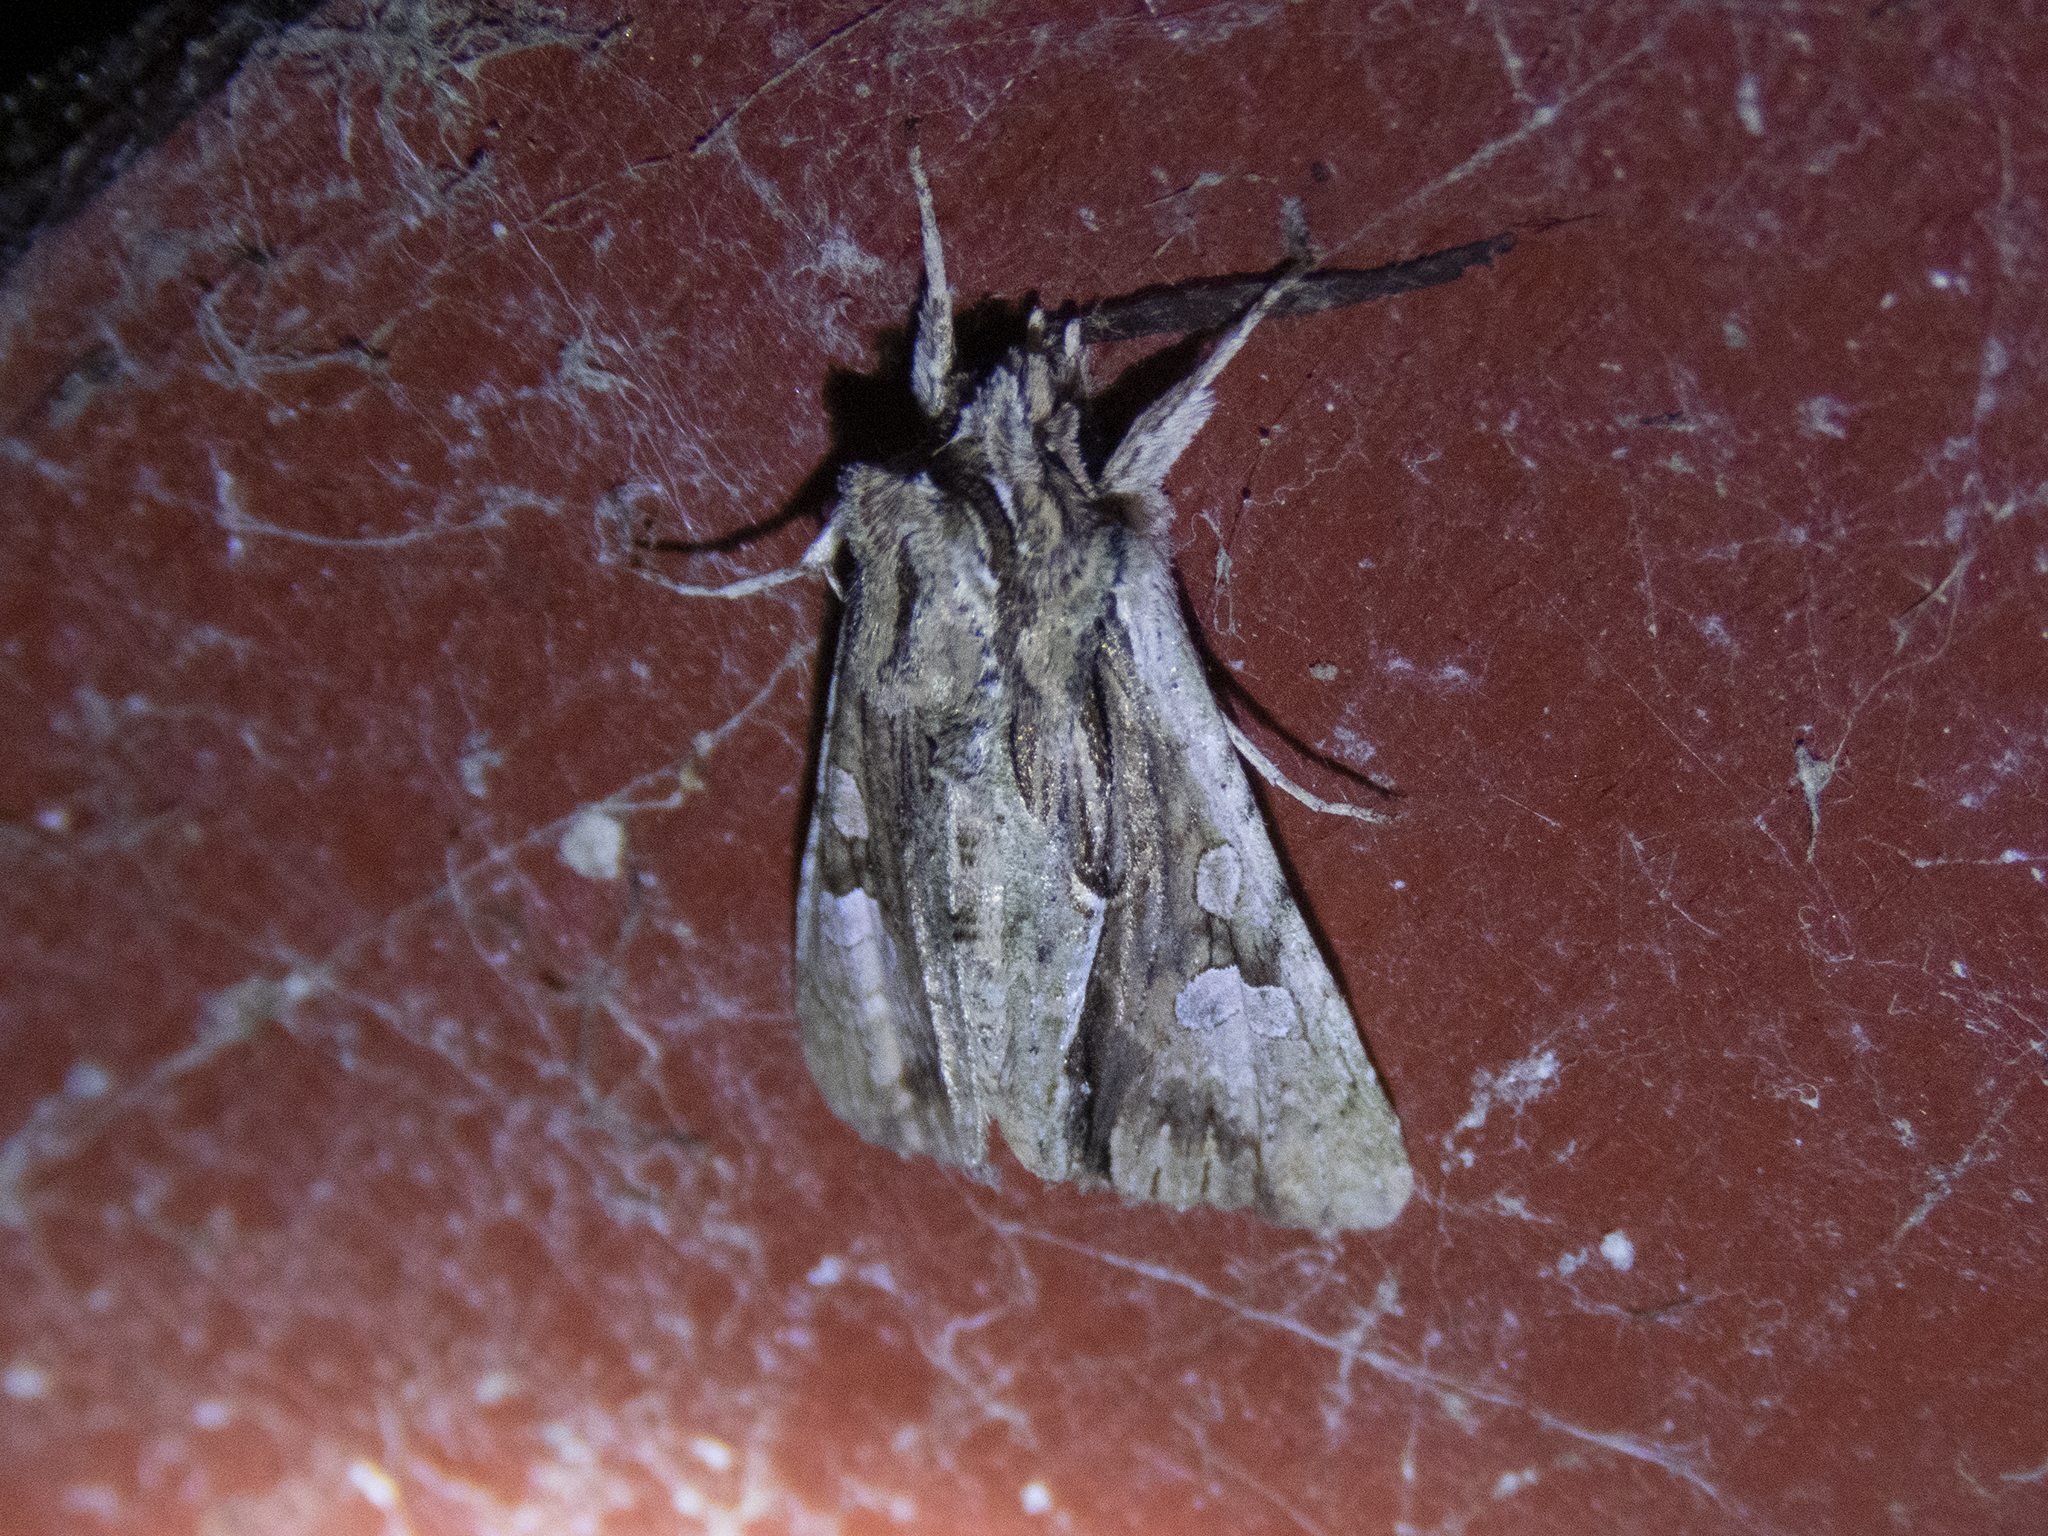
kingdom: Animalia
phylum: Arthropoda
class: Insecta
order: Lepidoptera
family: Noctuidae
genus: Meterana
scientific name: Meterana decorata
